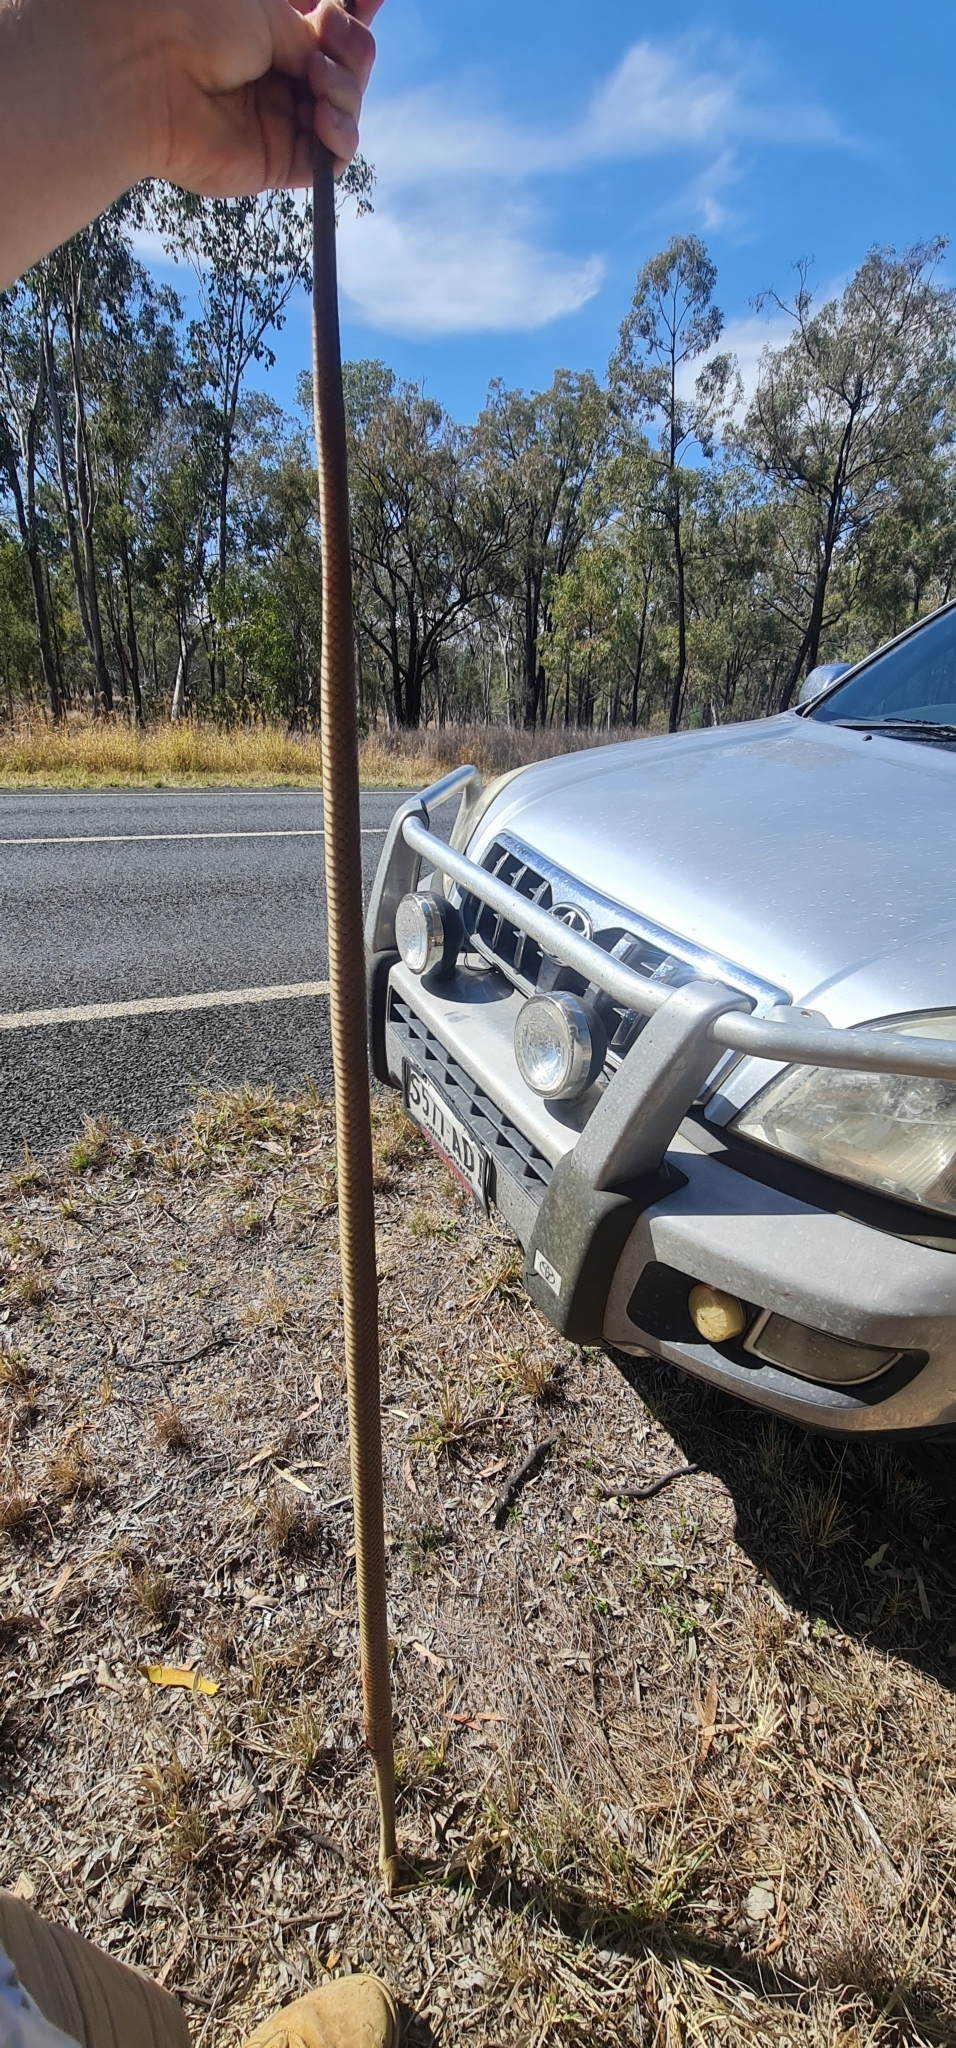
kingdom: Animalia
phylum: Chordata
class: Squamata
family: Elapidae
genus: Pseudonaja
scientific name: Pseudonaja textilis
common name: Eastern brown snake
